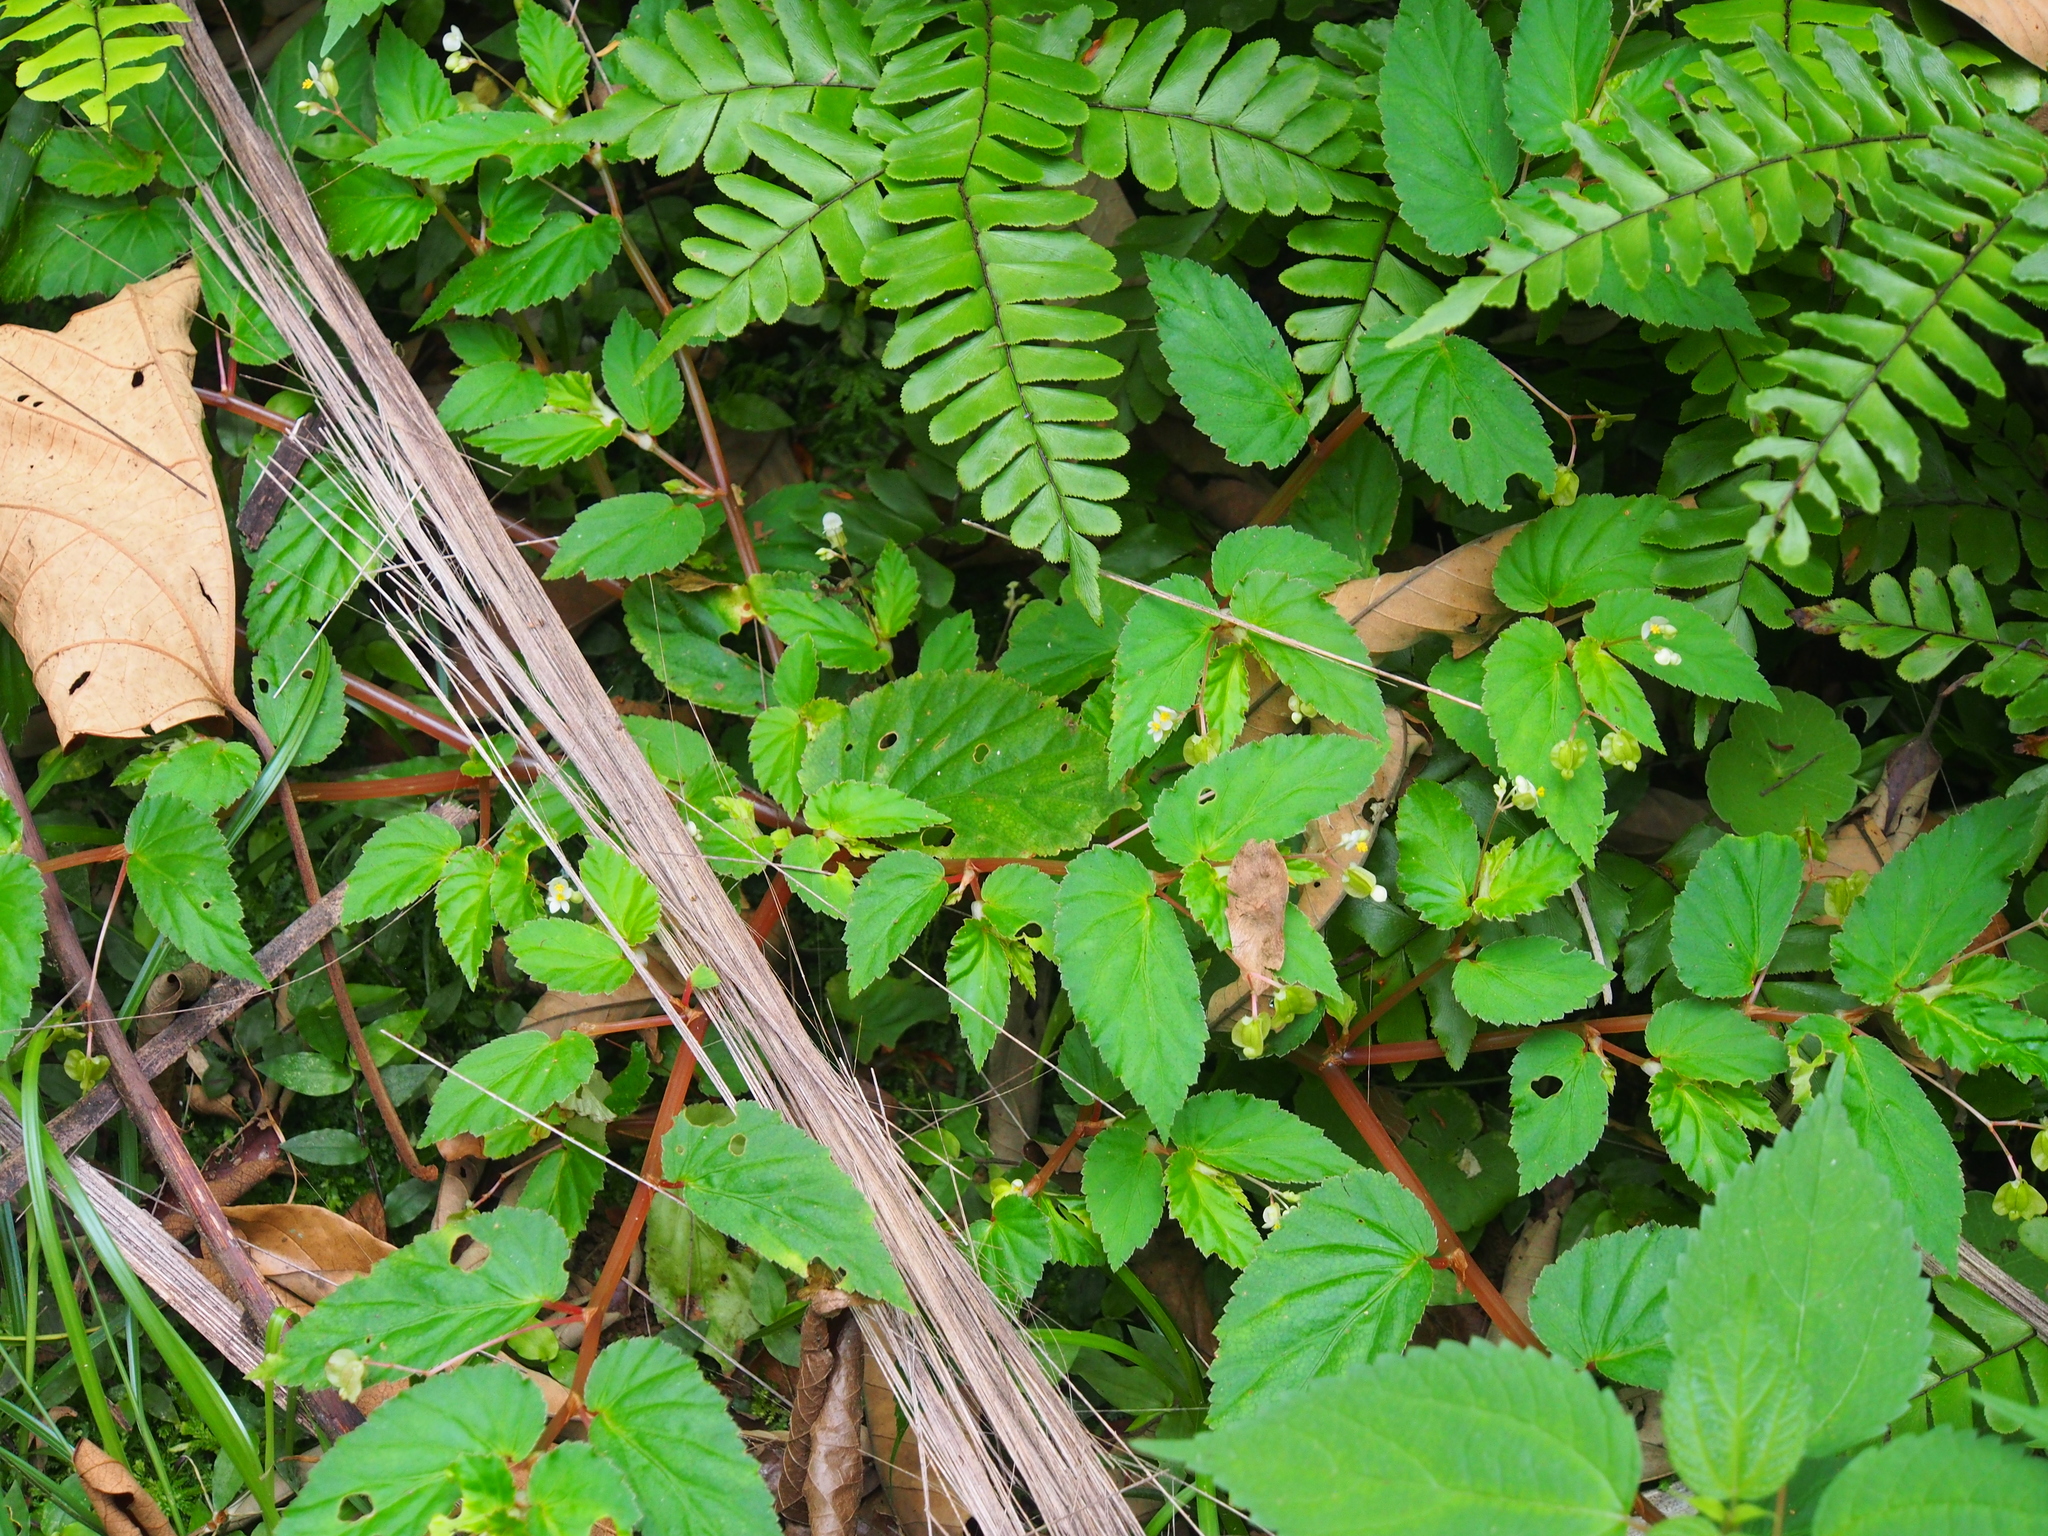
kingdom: Plantae
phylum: Tracheophyta
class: Magnoliopsida
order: Cucurbitales
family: Begoniaceae
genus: Begonia
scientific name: Begonia semiovata
